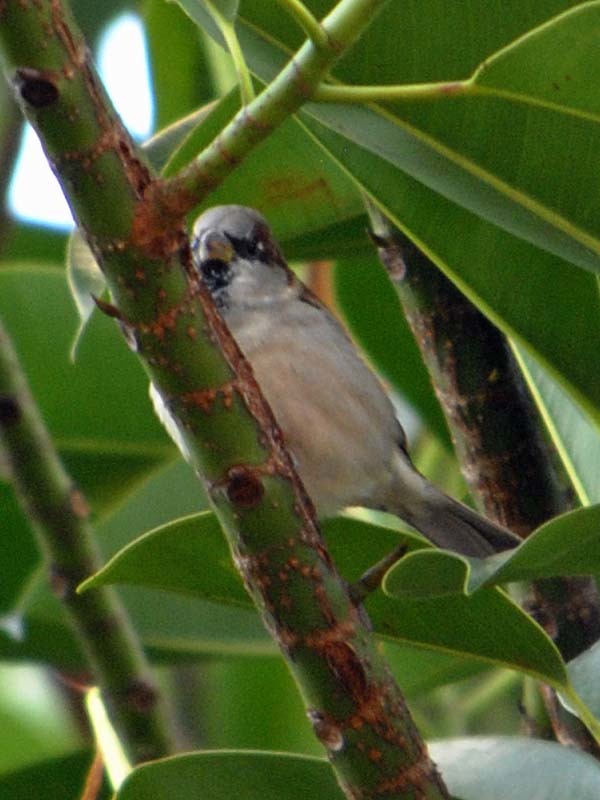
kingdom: Animalia
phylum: Chordata
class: Aves
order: Passeriformes
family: Passeridae
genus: Passer
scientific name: Passer domesticus
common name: House sparrow
